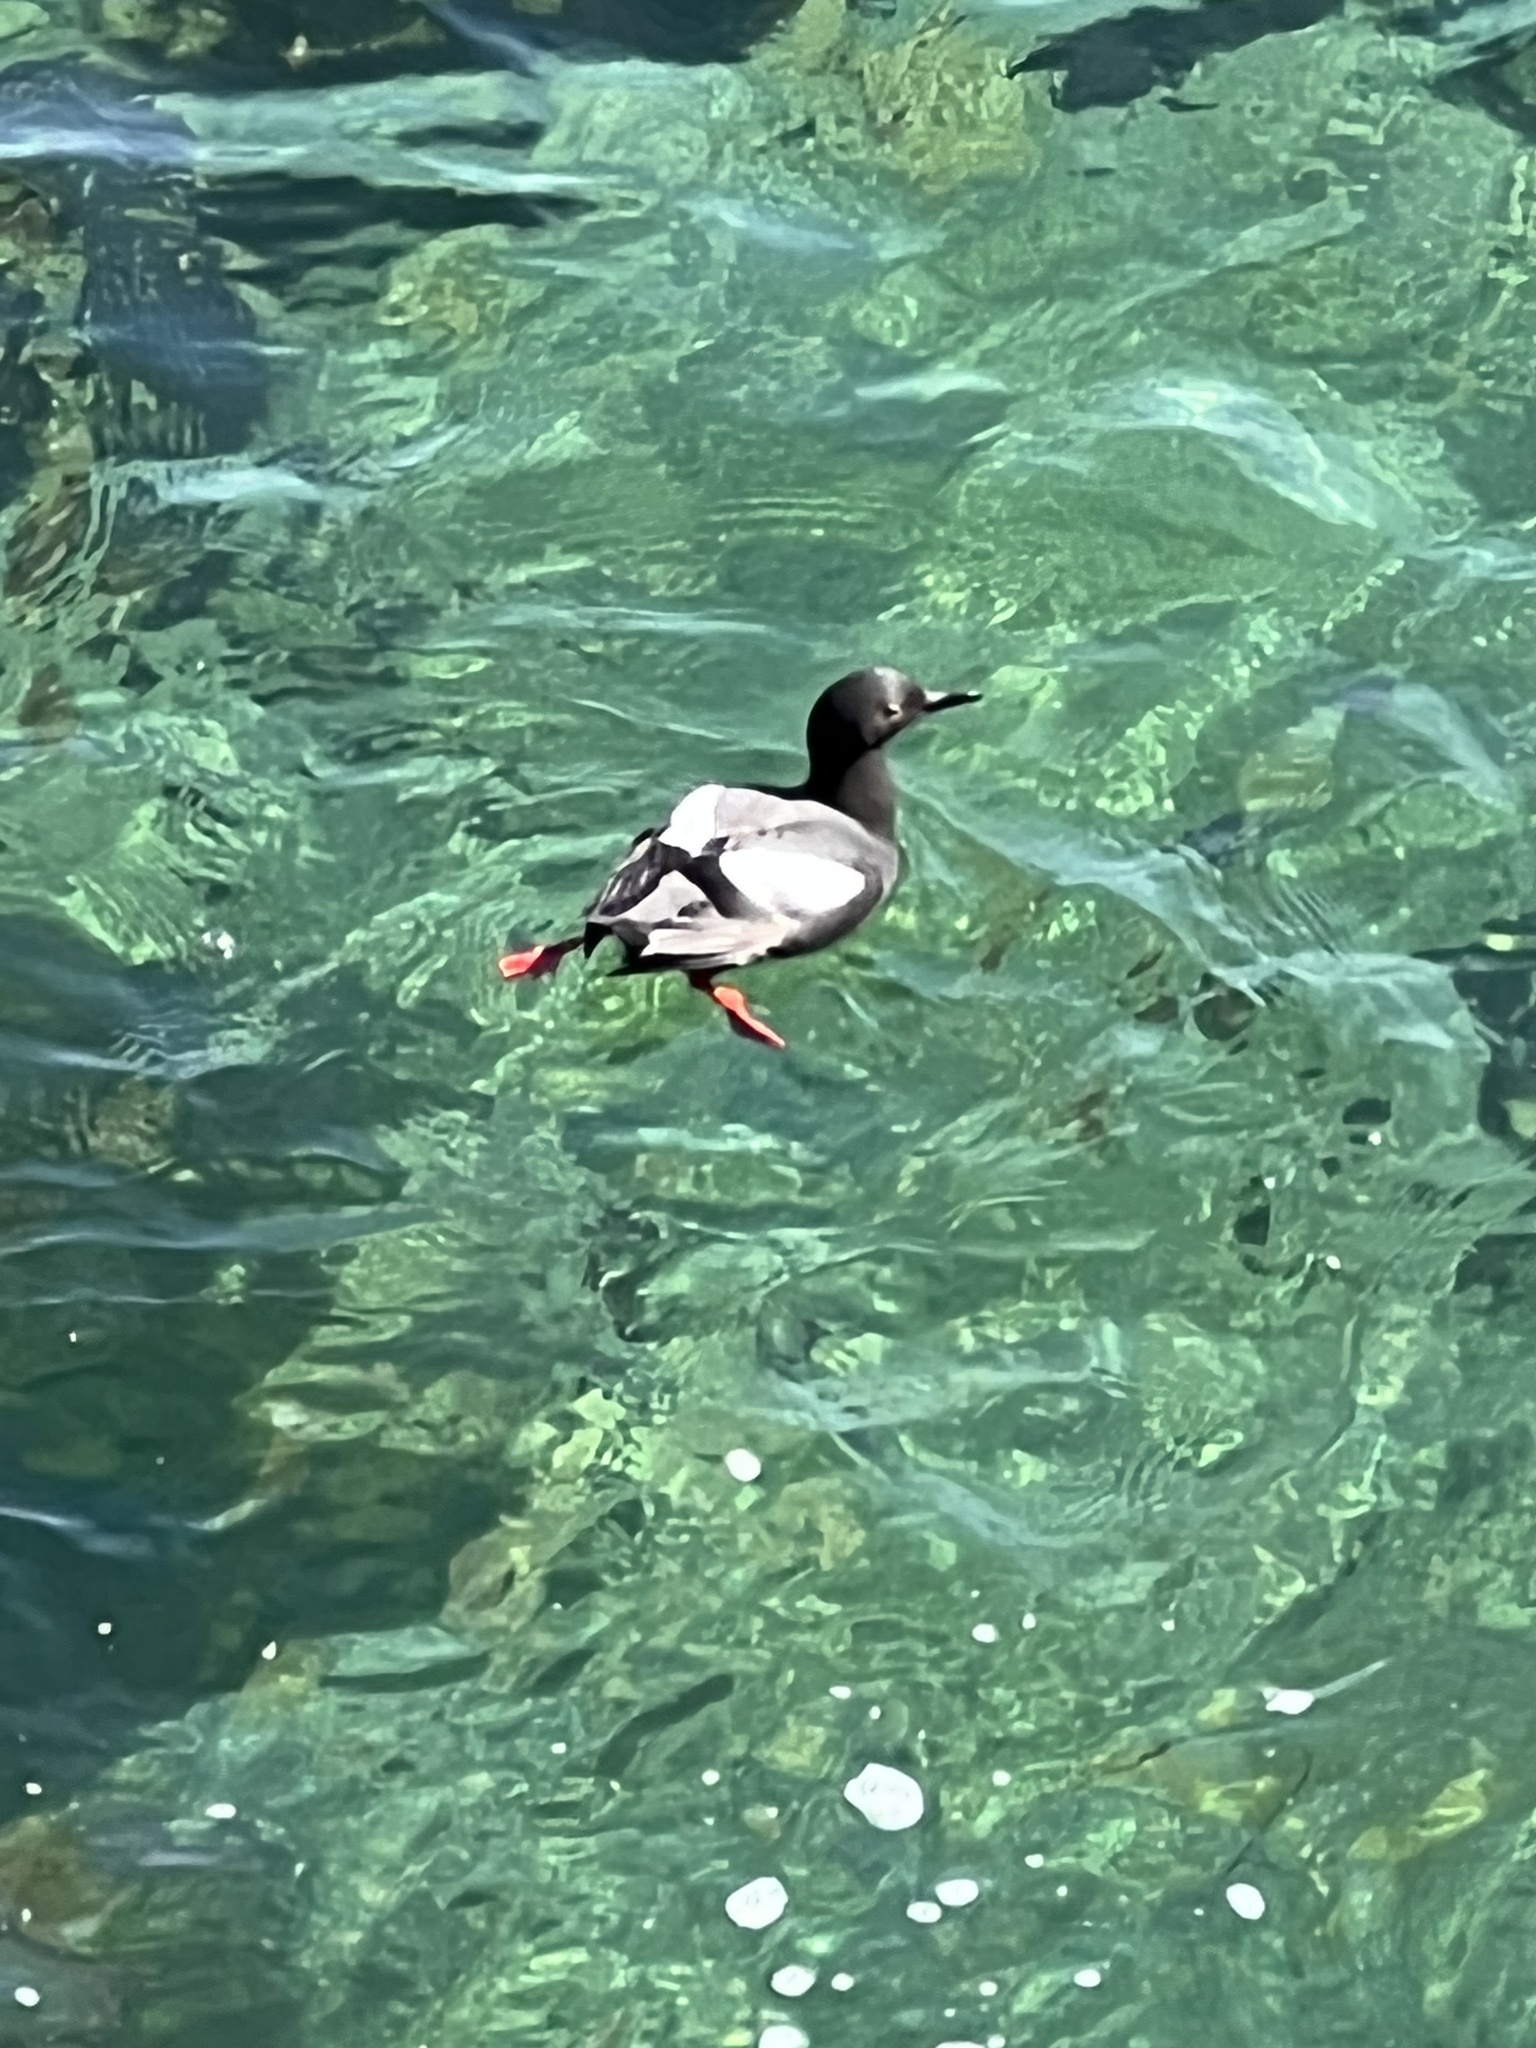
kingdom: Animalia
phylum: Chordata
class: Aves
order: Charadriiformes
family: Alcidae
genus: Cepphus
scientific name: Cepphus columba
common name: Pigeon guillemot
